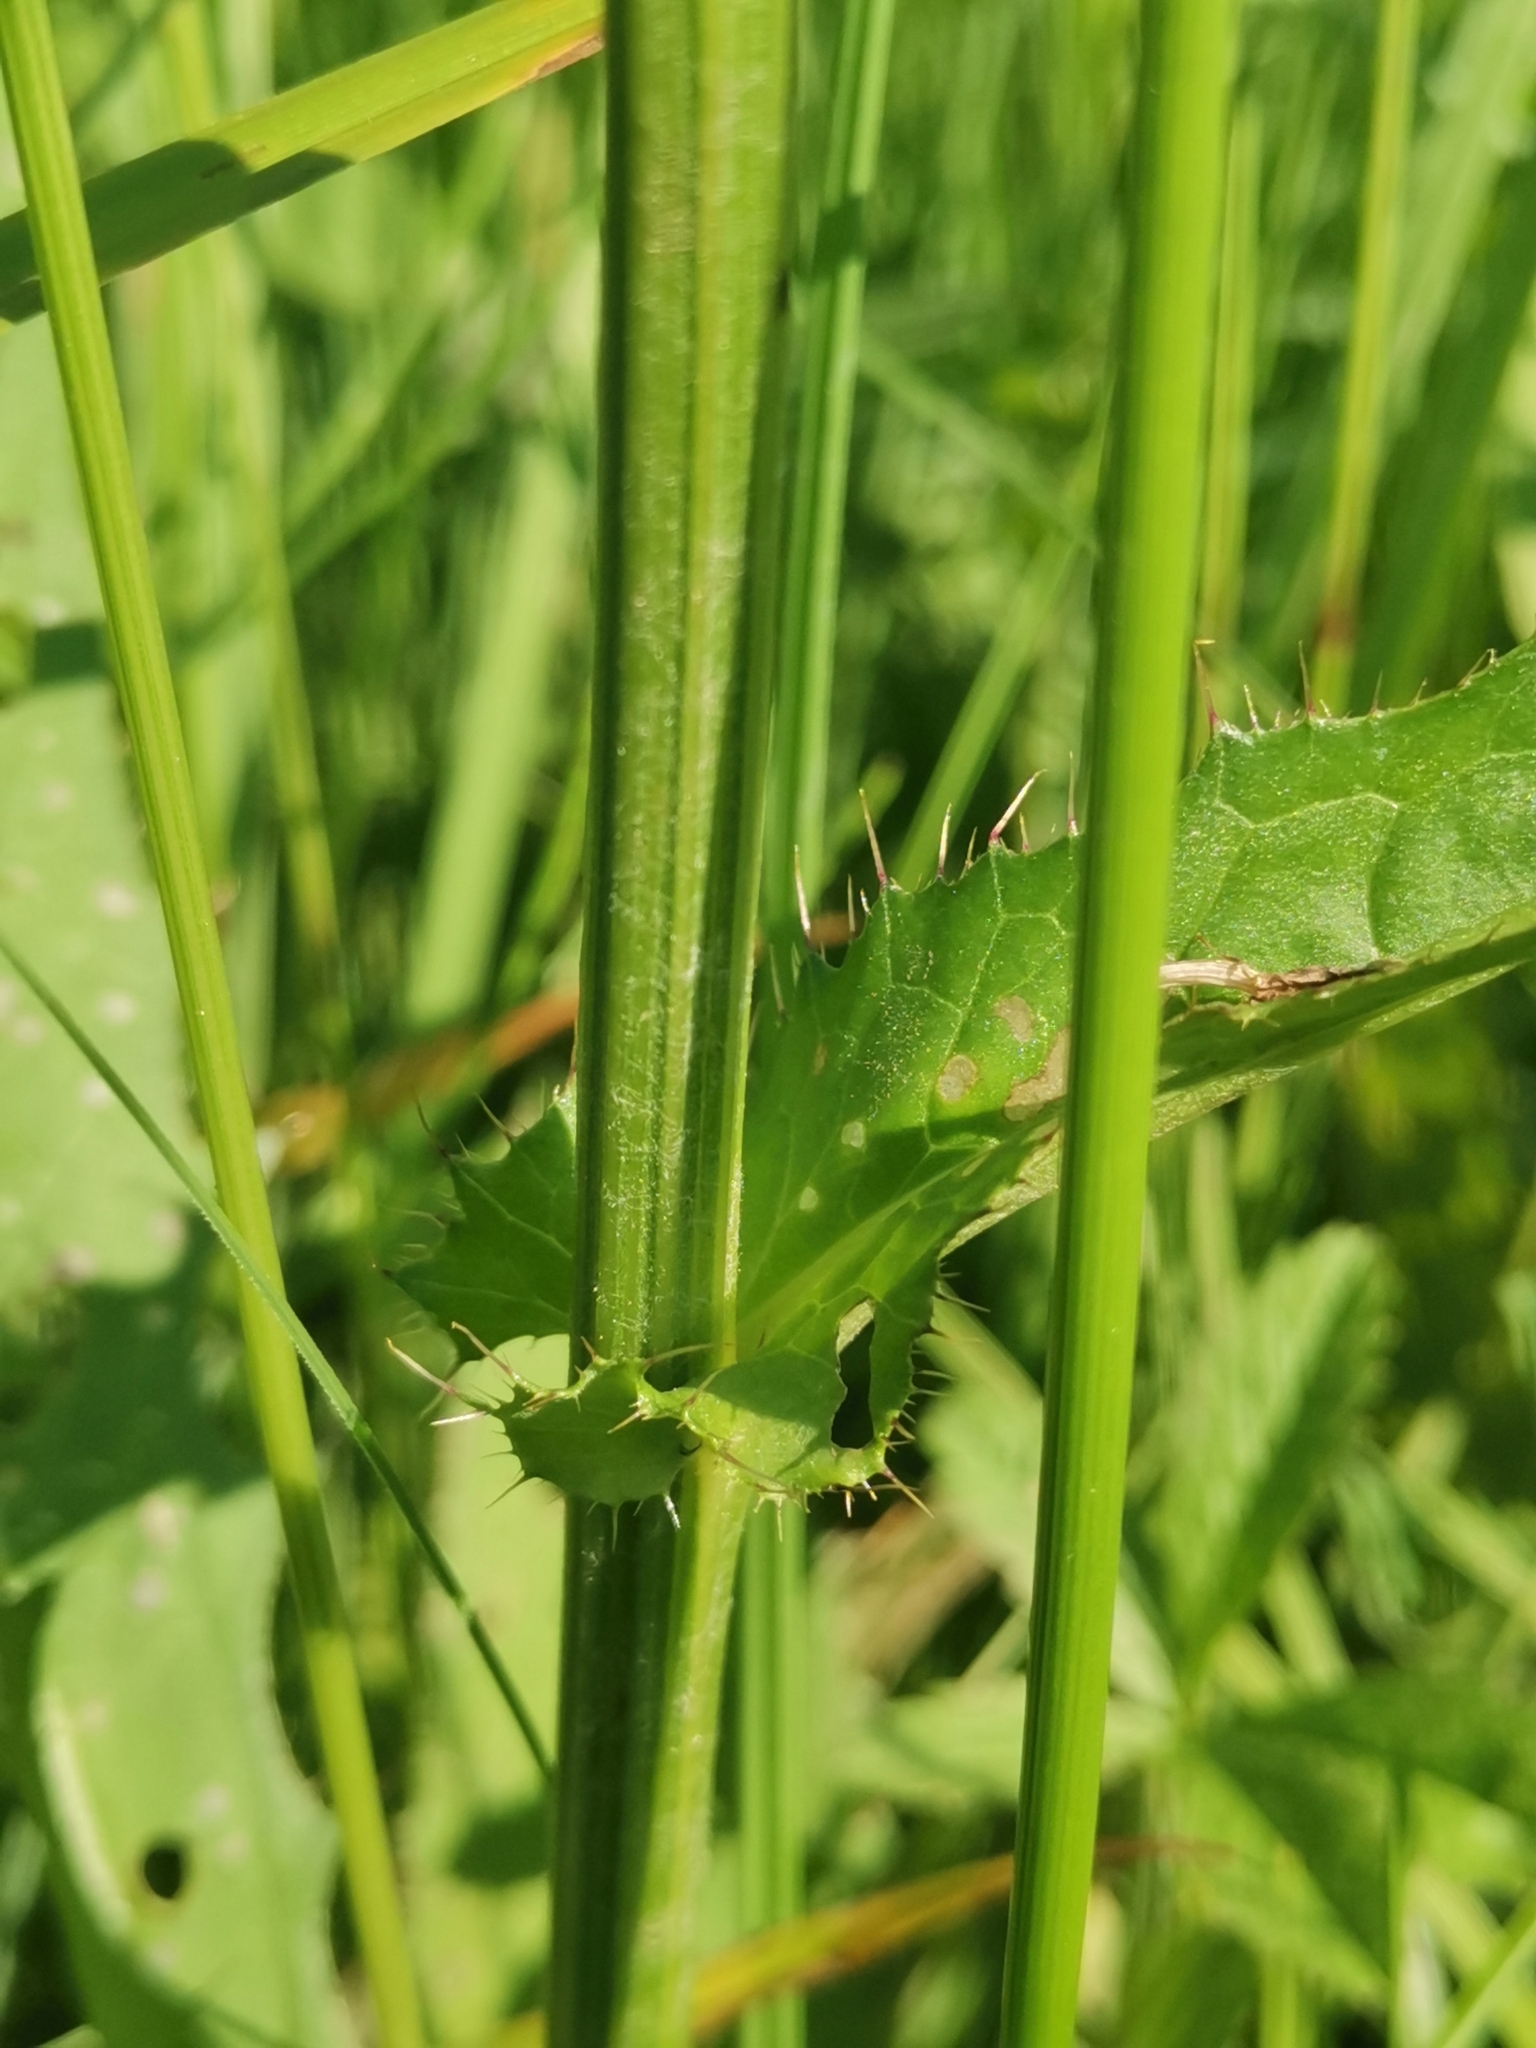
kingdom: Plantae
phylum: Tracheophyta
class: Magnoliopsida
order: Asterales
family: Asteraceae
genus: Cirsium
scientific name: Cirsium rivulare
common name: Brook thistle
